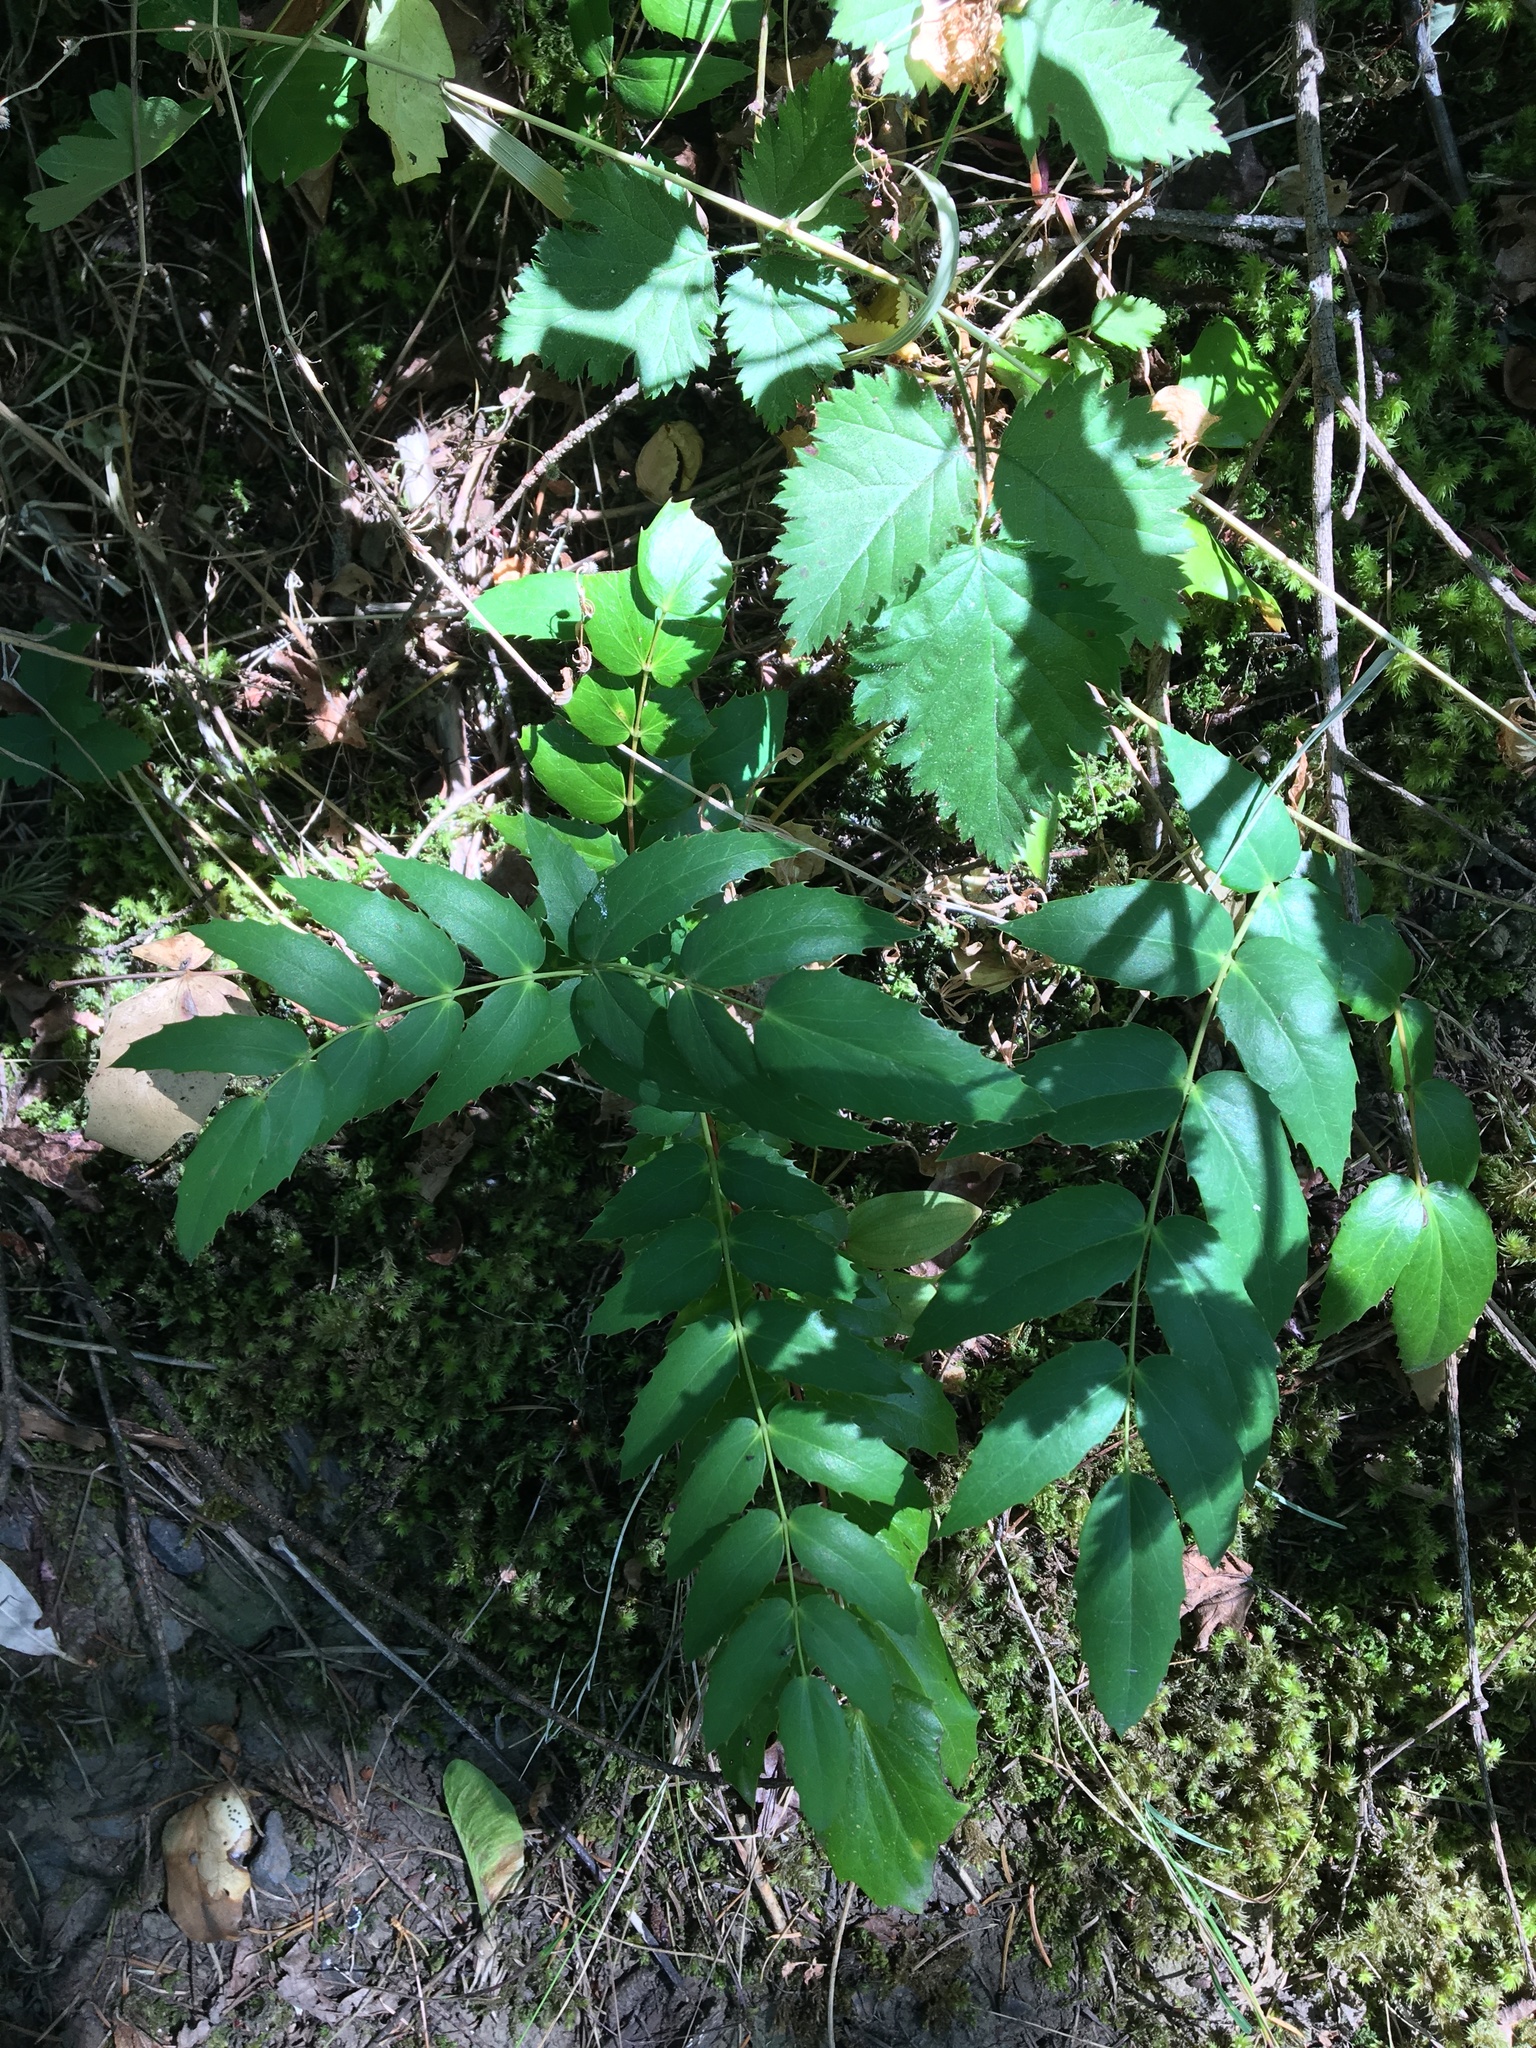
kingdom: Plantae
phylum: Tracheophyta
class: Magnoliopsida
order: Ranunculales
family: Berberidaceae
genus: Mahonia
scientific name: Mahonia nervosa
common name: Cascade oregon-grape
